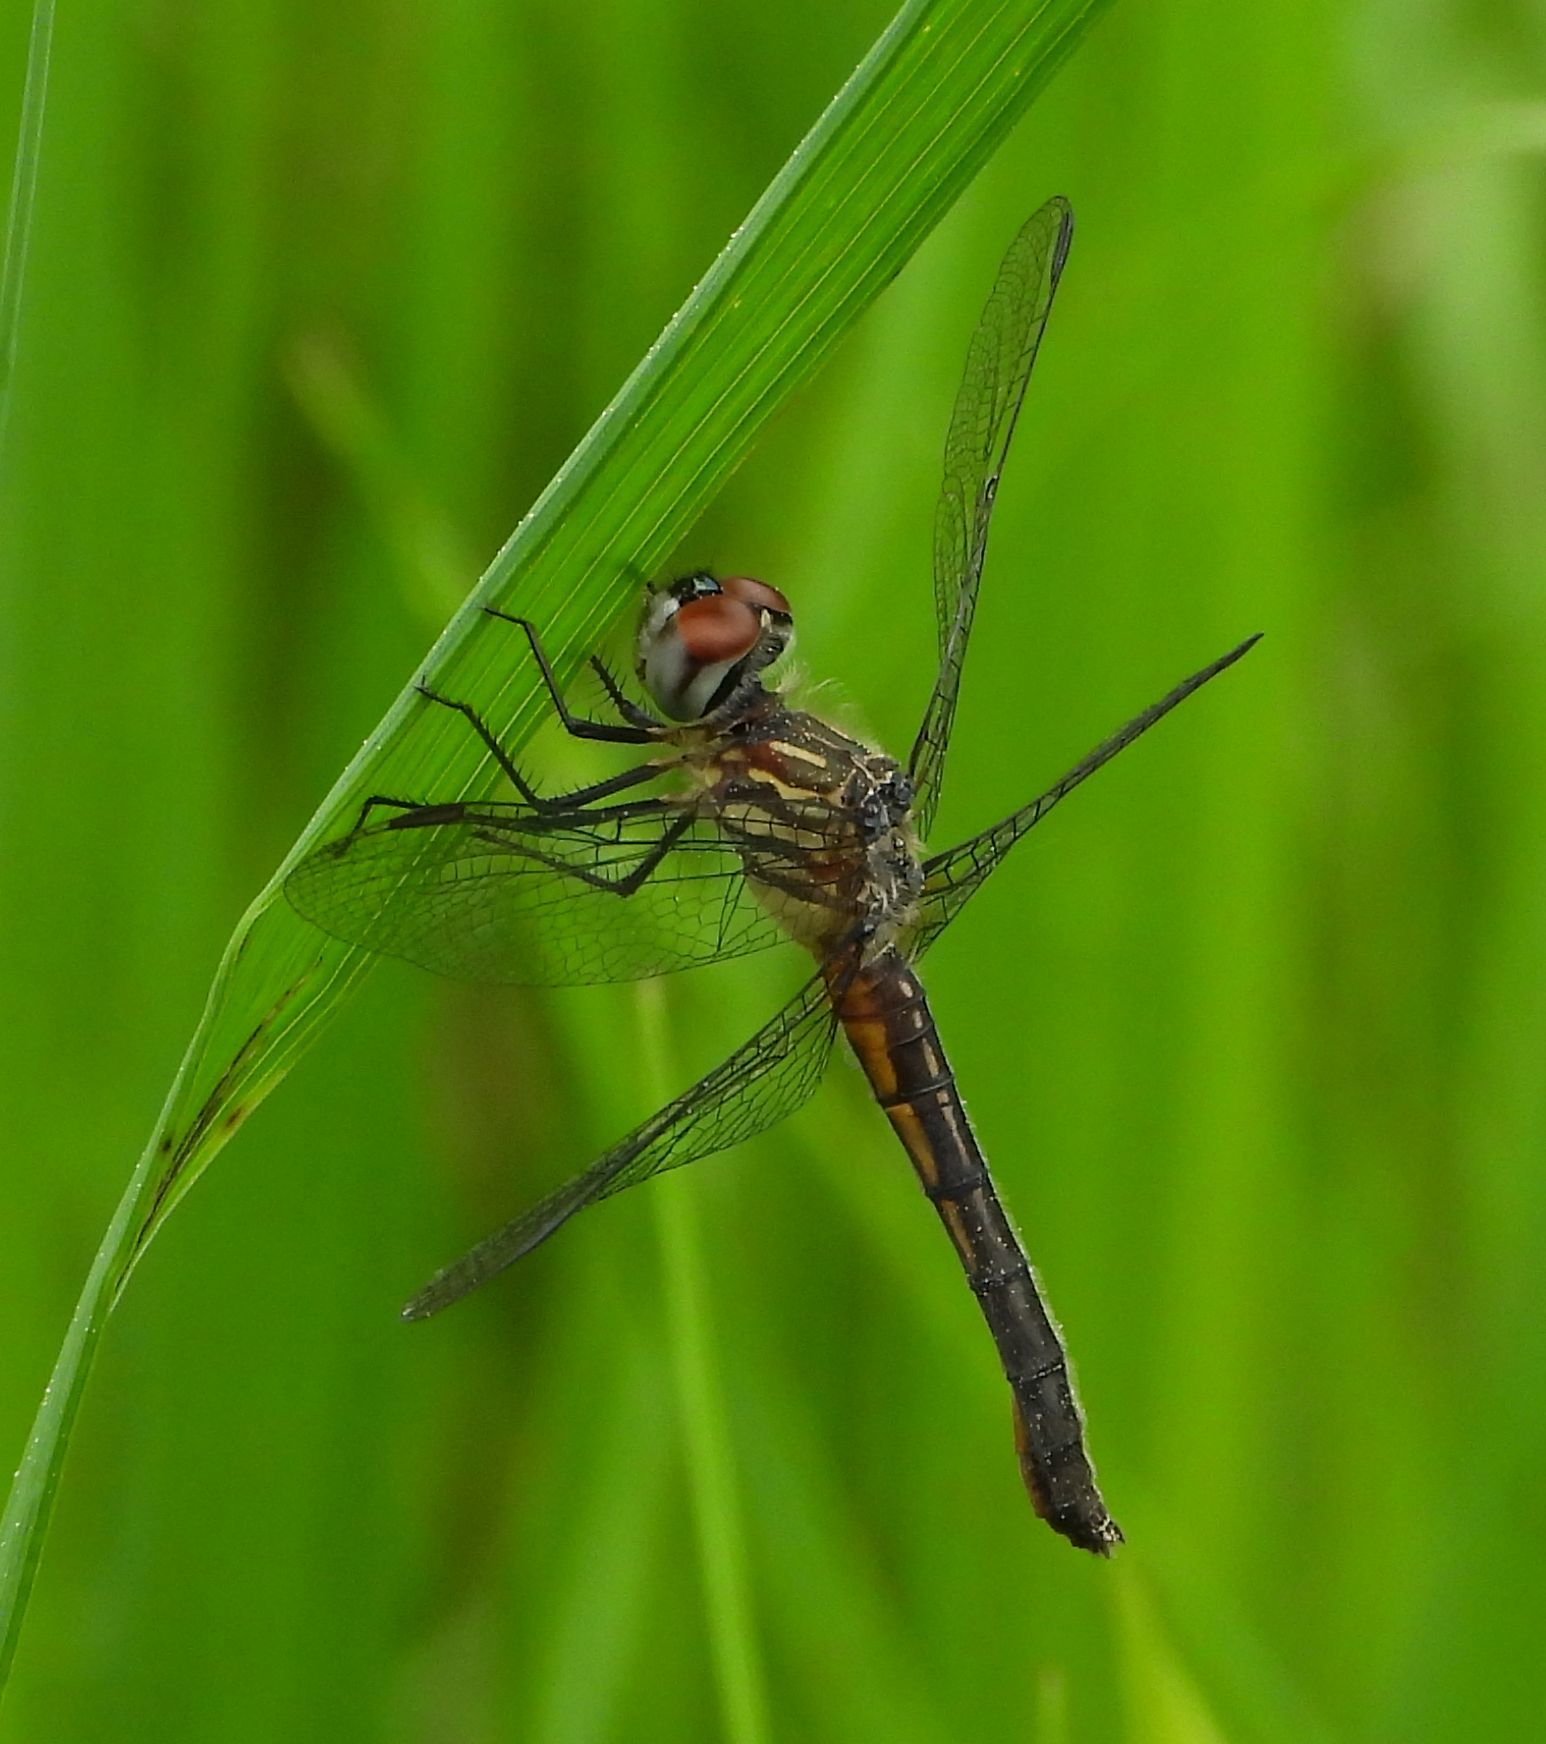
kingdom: Animalia
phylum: Arthropoda
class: Insecta
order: Odonata
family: Libellulidae
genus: Pachydiplax
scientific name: Pachydiplax longipennis
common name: Blue dasher
